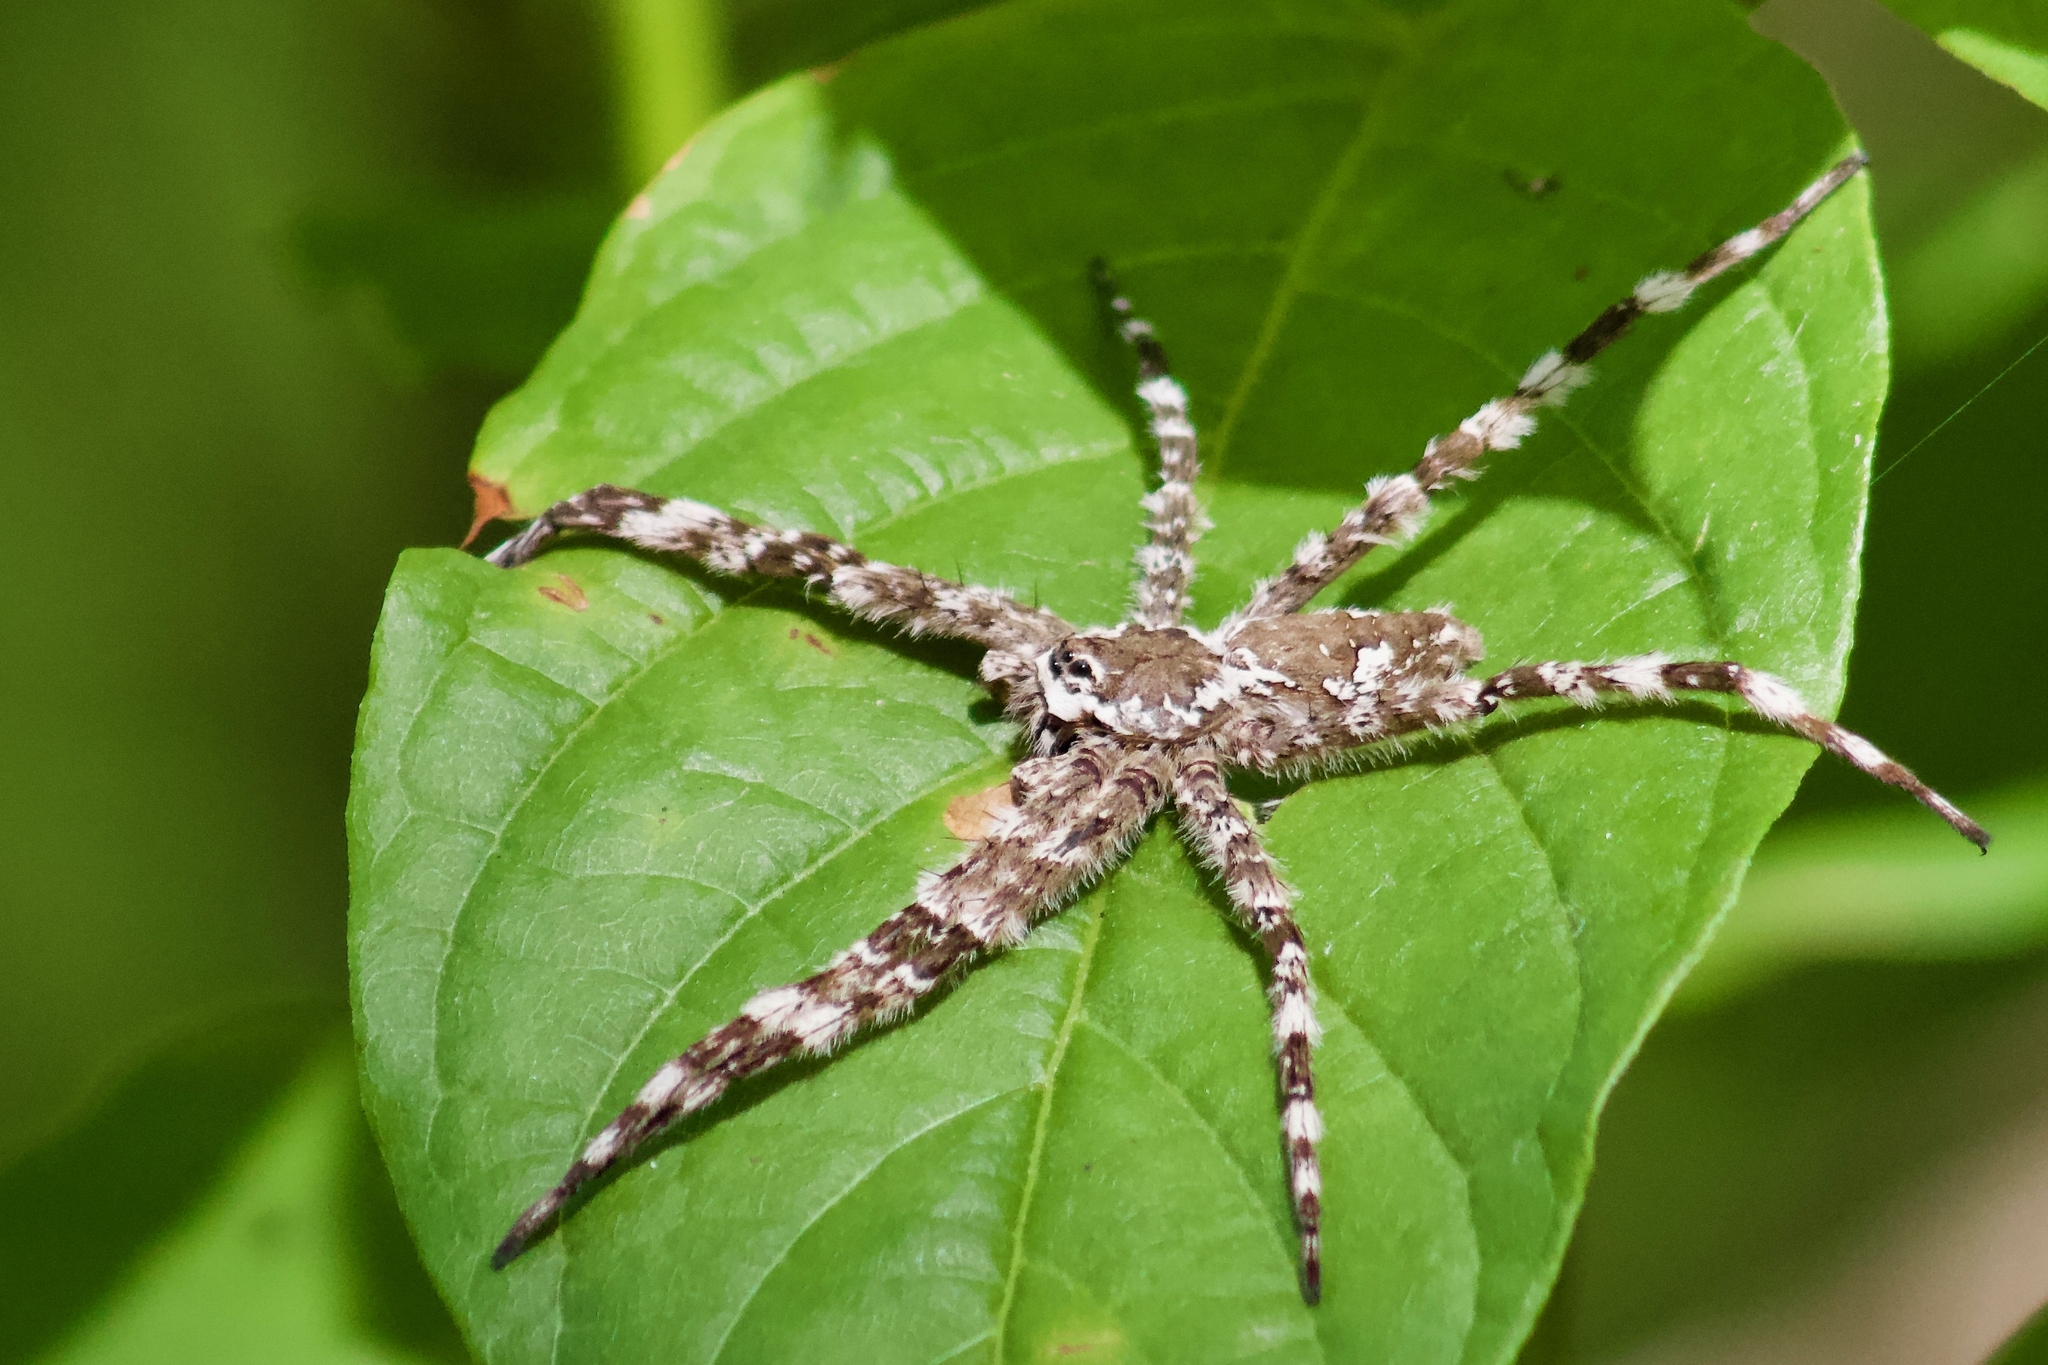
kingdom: Animalia
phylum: Arthropoda
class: Arachnida
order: Araneae
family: Pisauridae
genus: Dolomedes
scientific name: Dolomedes albineus
